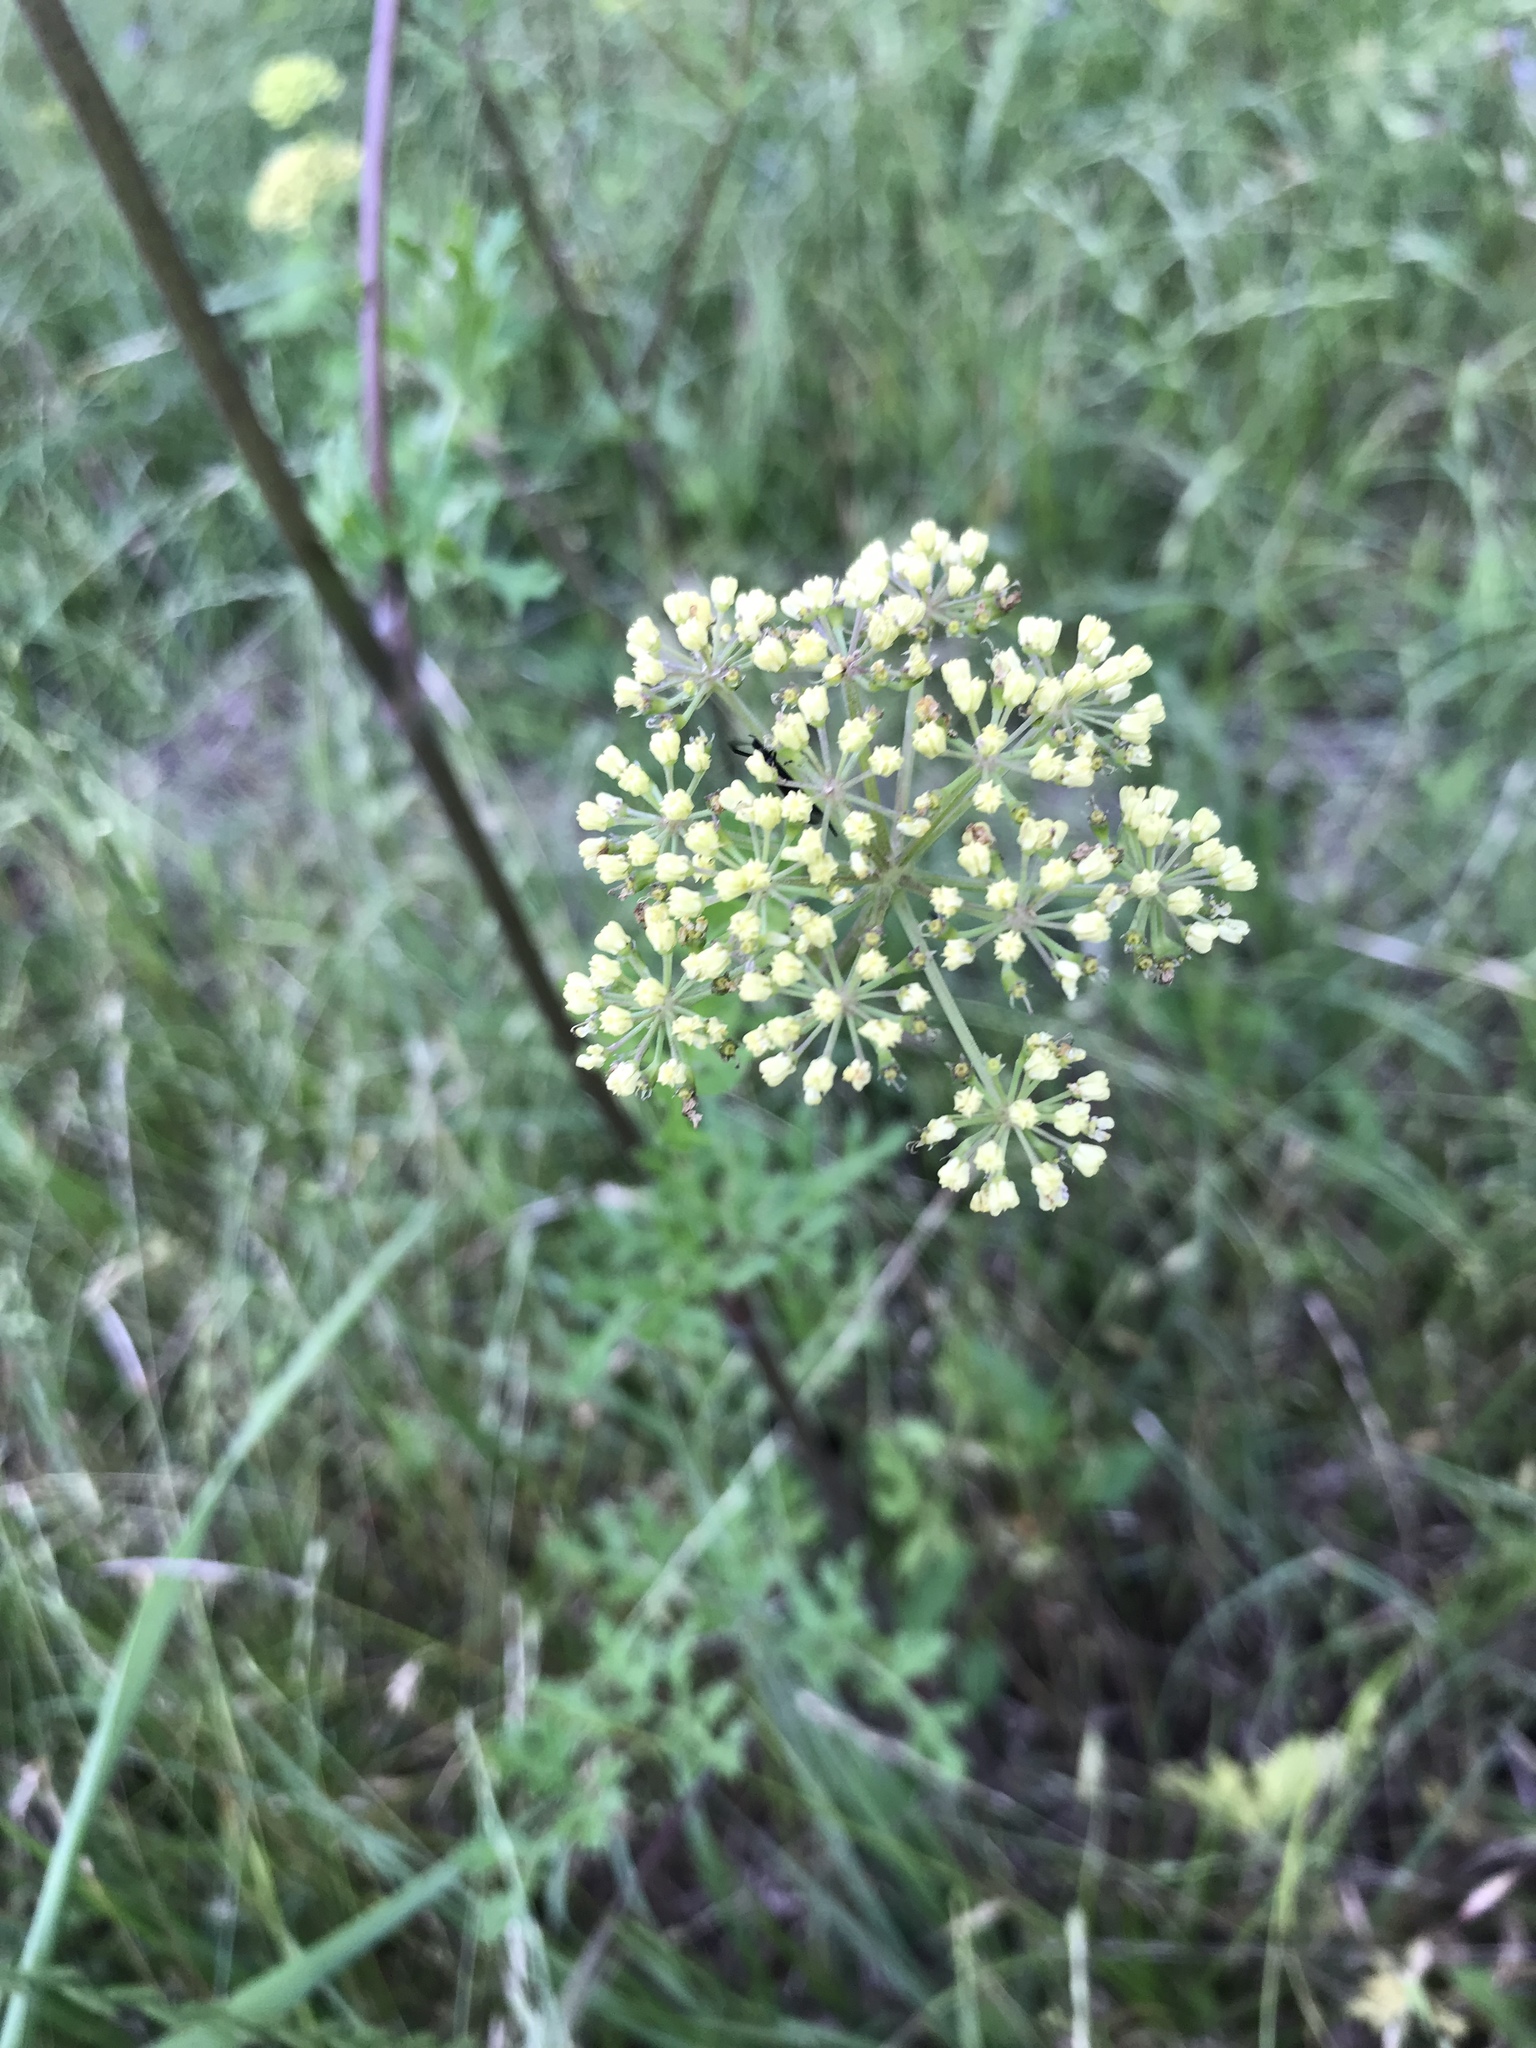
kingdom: Plantae
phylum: Tracheophyta
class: Magnoliopsida
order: Apiales
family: Apiaceae
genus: Polytaenia
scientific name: Polytaenia texana
